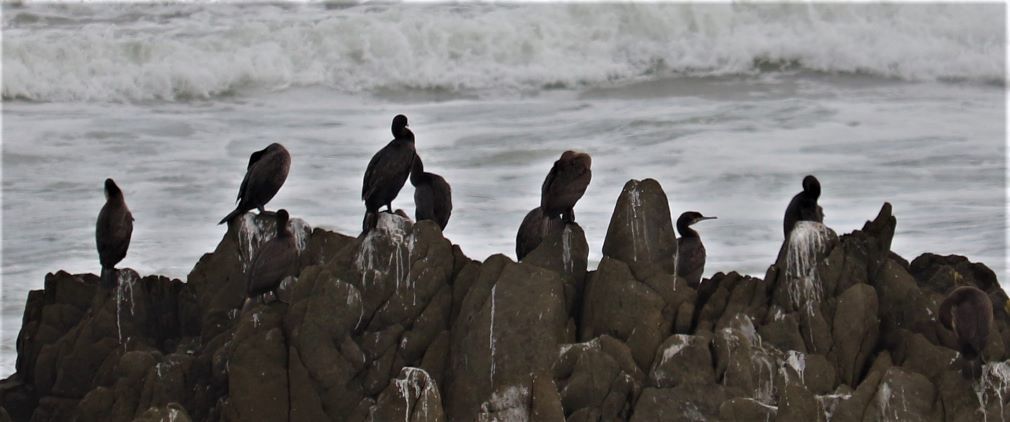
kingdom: Animalia
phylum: Chordata
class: Aves
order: Suliformes
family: Phalacrocoracidae
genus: Phalacrocorax
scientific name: Phalacrocorax capensis
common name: Cape cormorant
